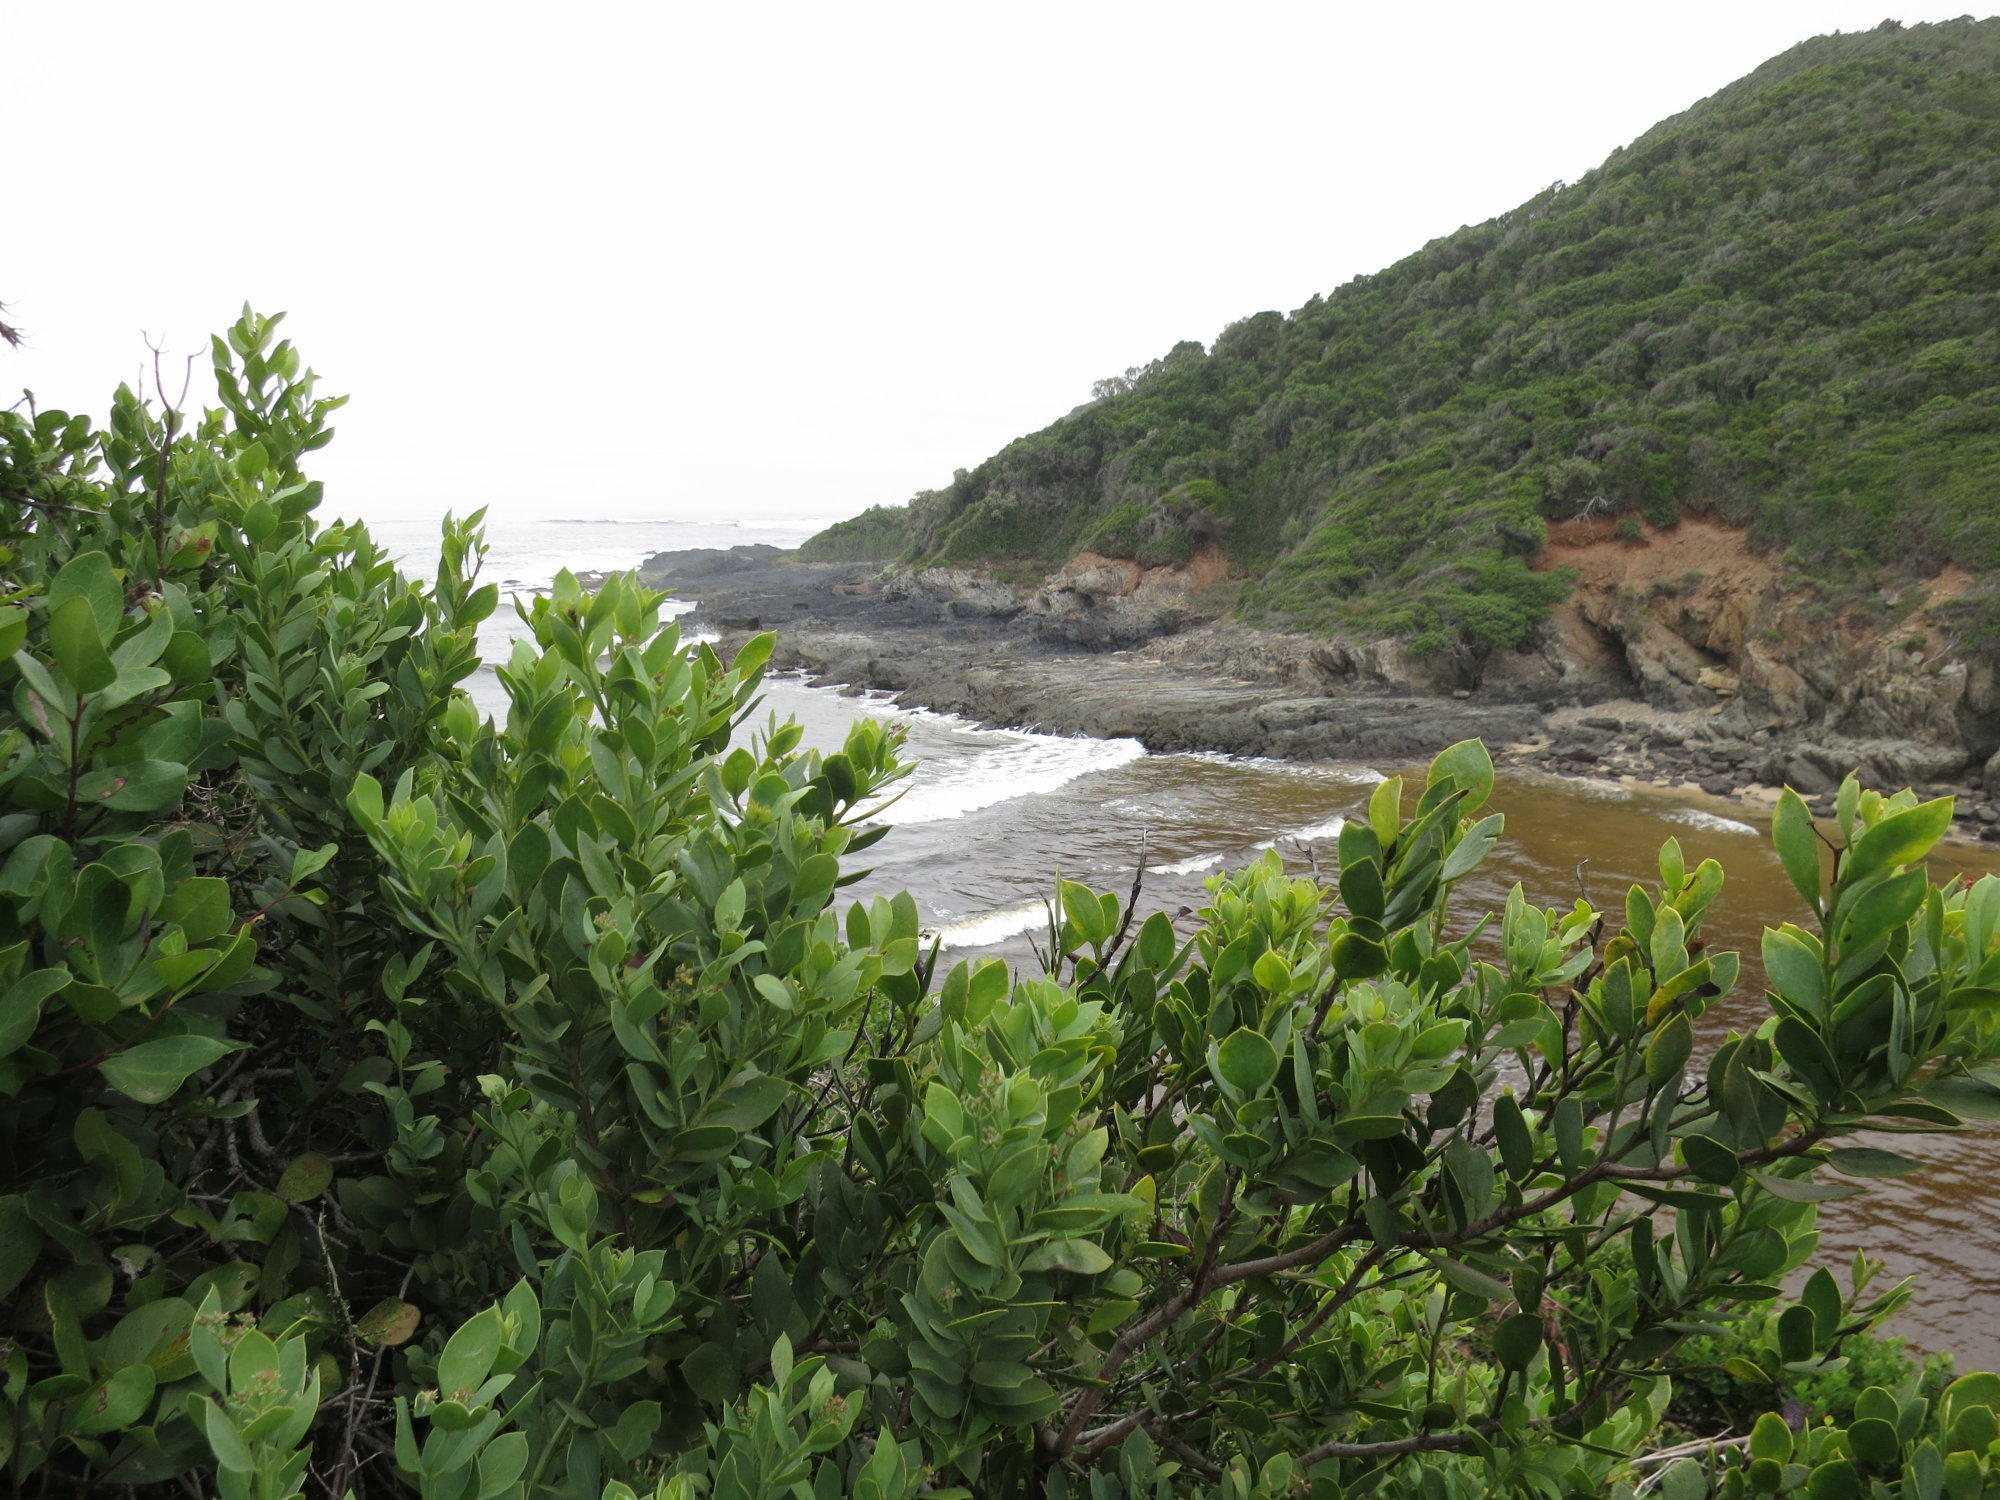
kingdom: Plantae
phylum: Tracheophyta
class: Magnoliopsida
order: Santalales
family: Santalaceae
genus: Osyris
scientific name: Osyris compressa
